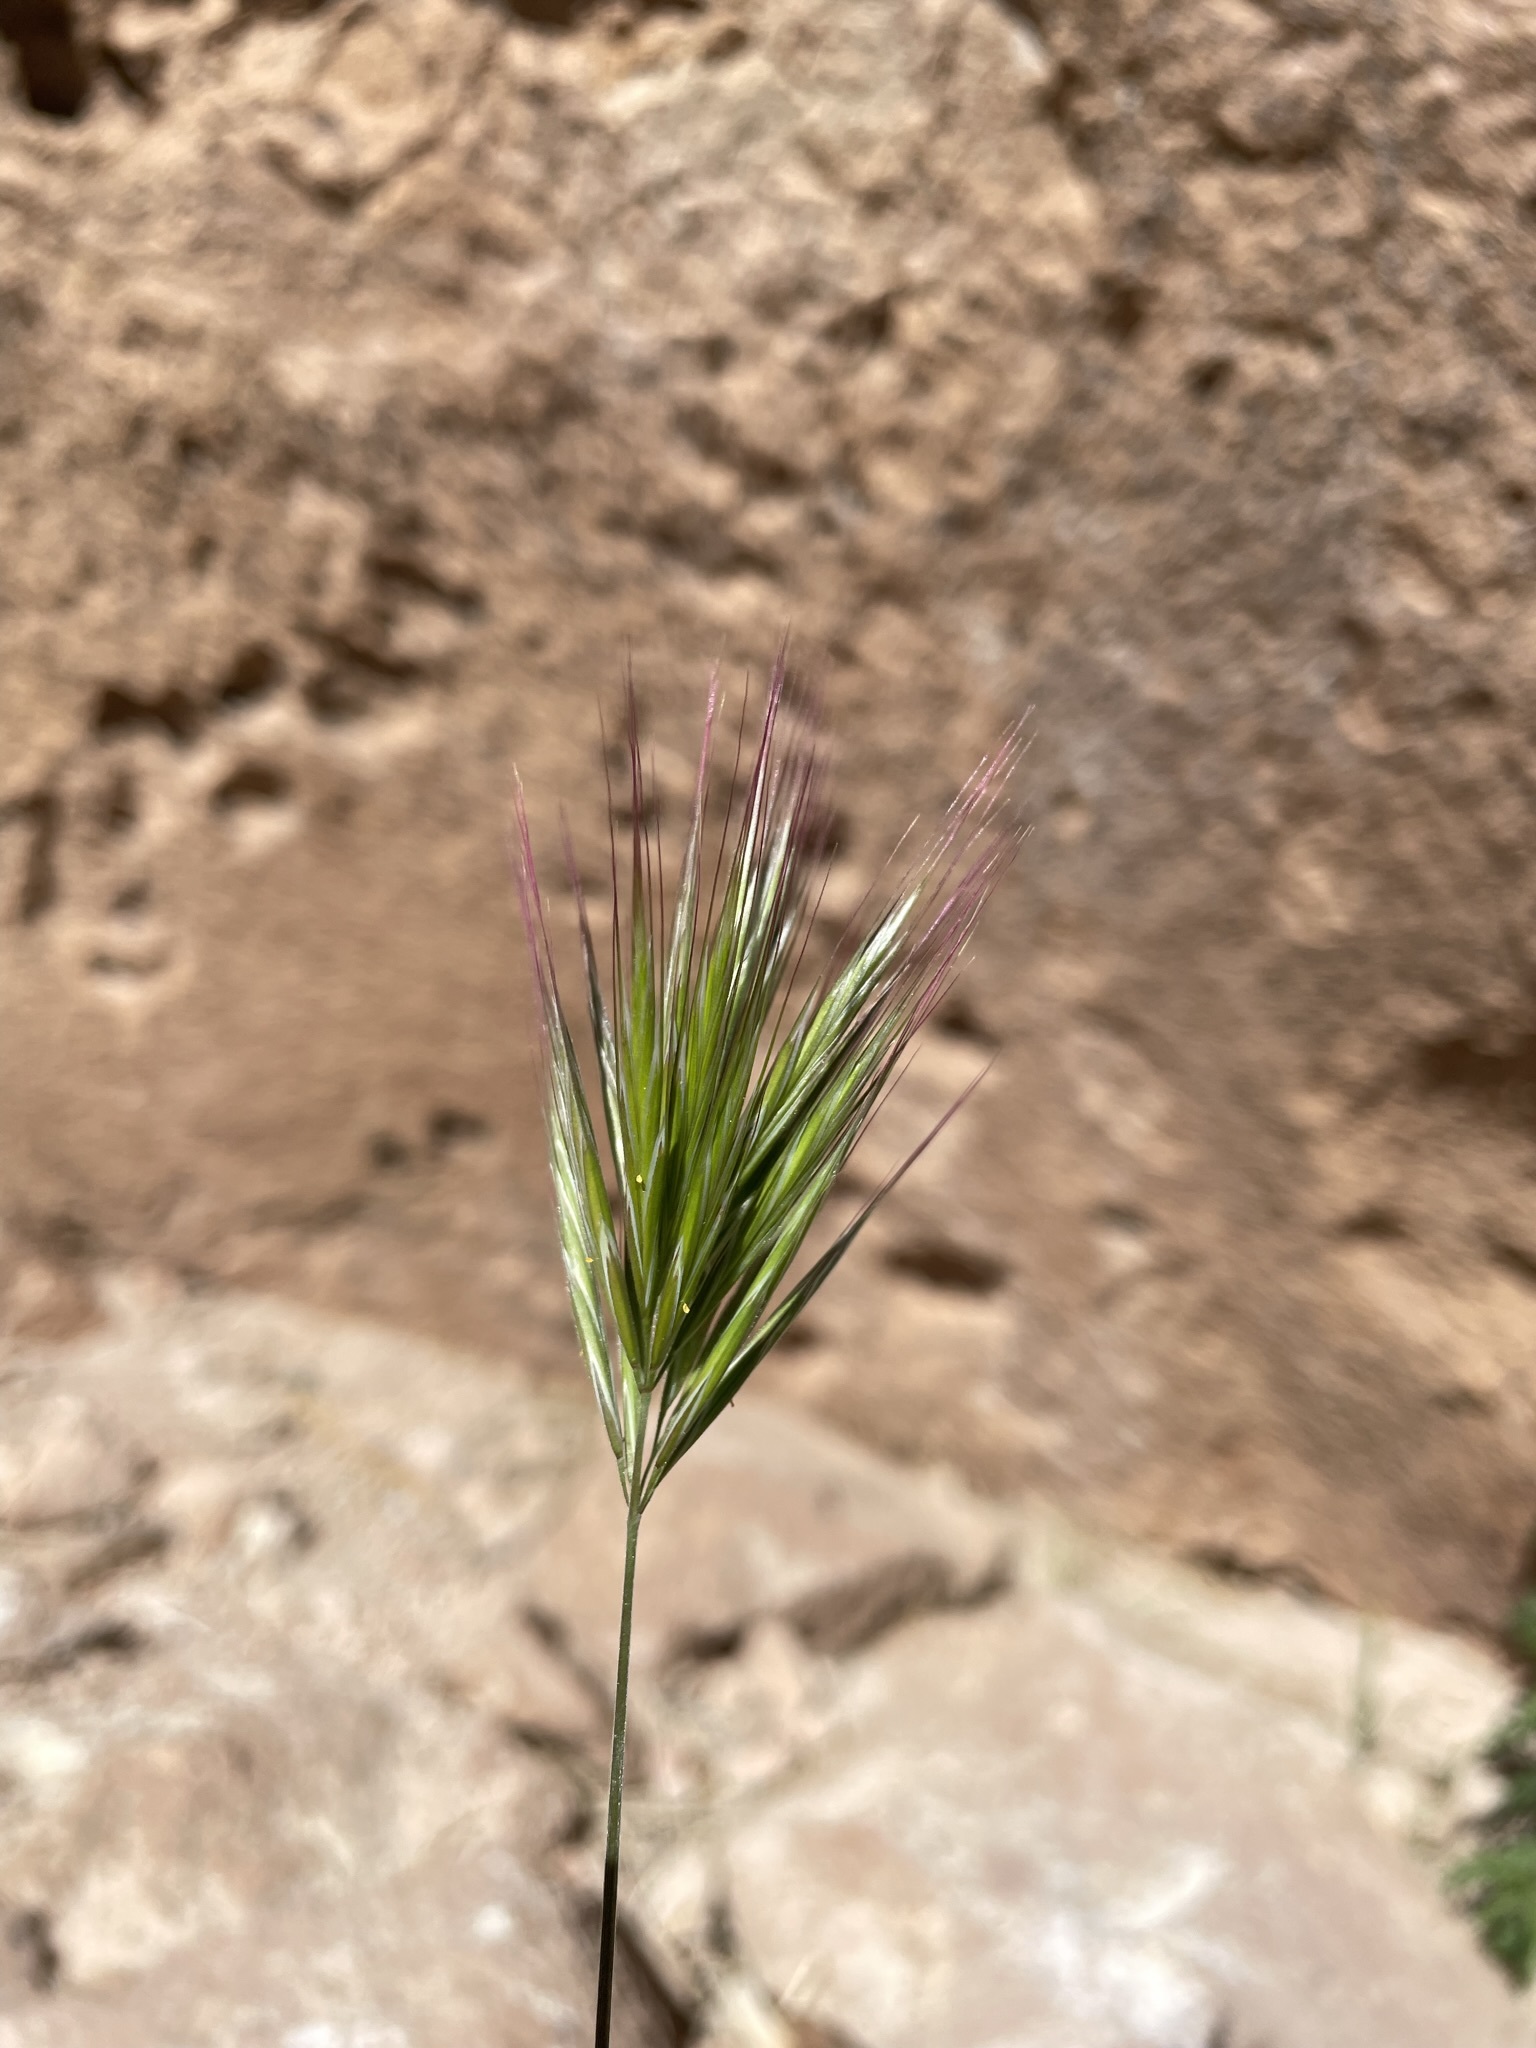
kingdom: Plantae
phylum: Tracheophyta
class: Liliopsida
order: Poales
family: Poaceae
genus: Bromus
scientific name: Bromus rubens
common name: Red brome
